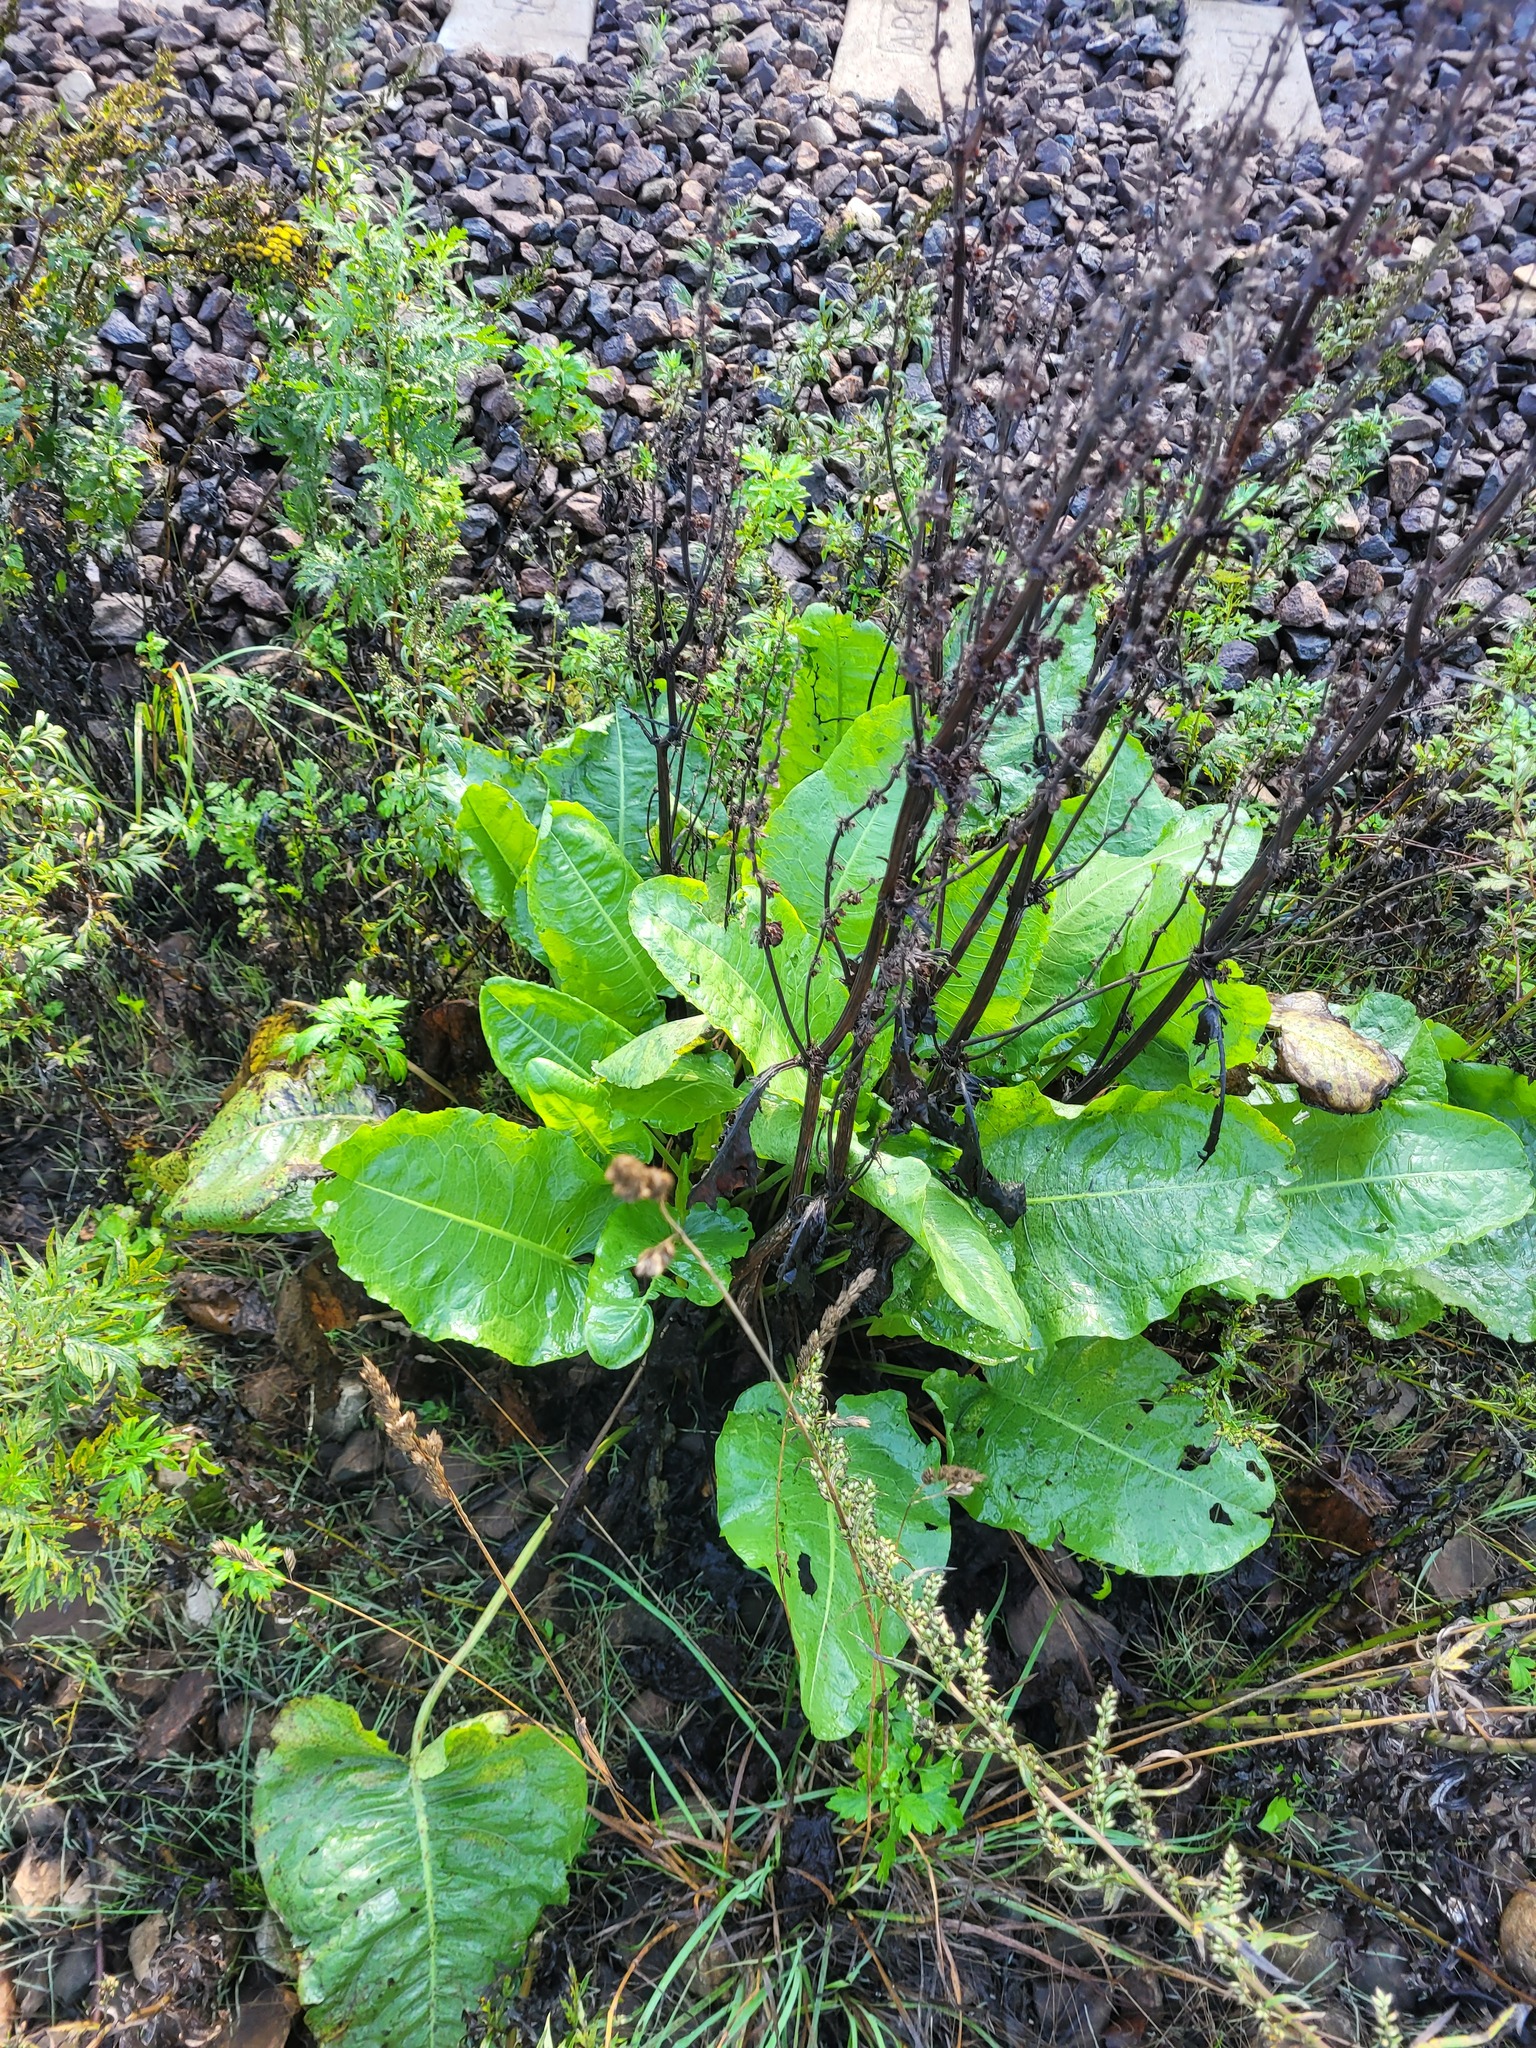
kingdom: Plantae
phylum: Tracheophyta
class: Magnoliopsida
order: Caryophyllales
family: Polygonaceae
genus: Rumex
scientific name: Rumex confertus
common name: Russian dock
